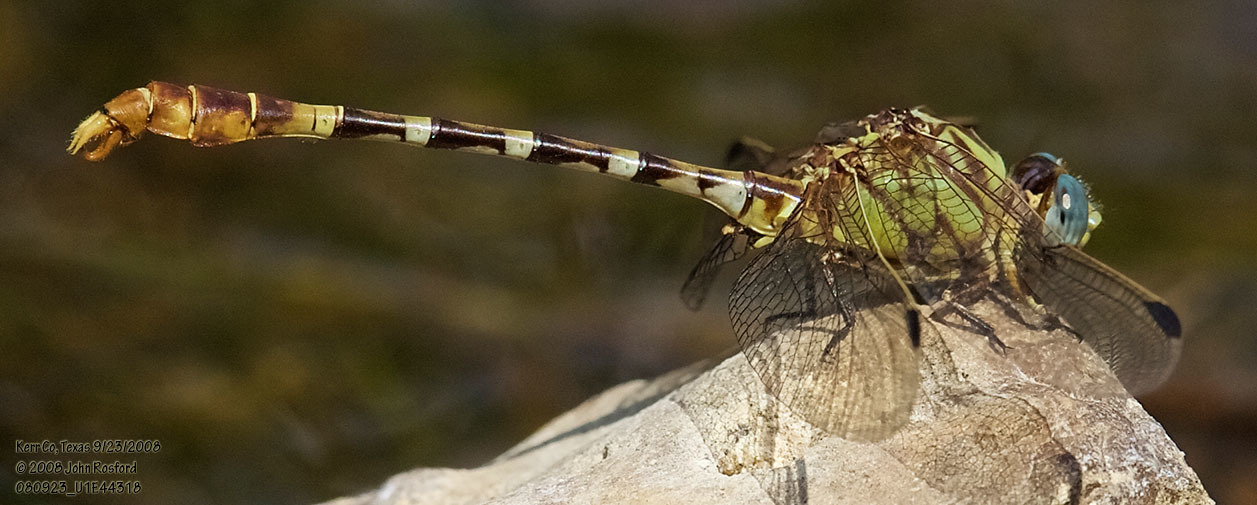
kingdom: Animalia
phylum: Arthropoda
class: Insecta
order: Odonata
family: Gomphidae
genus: Erpetogomphus
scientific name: Erpetogomphus designatus
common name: Eastern ringtail
